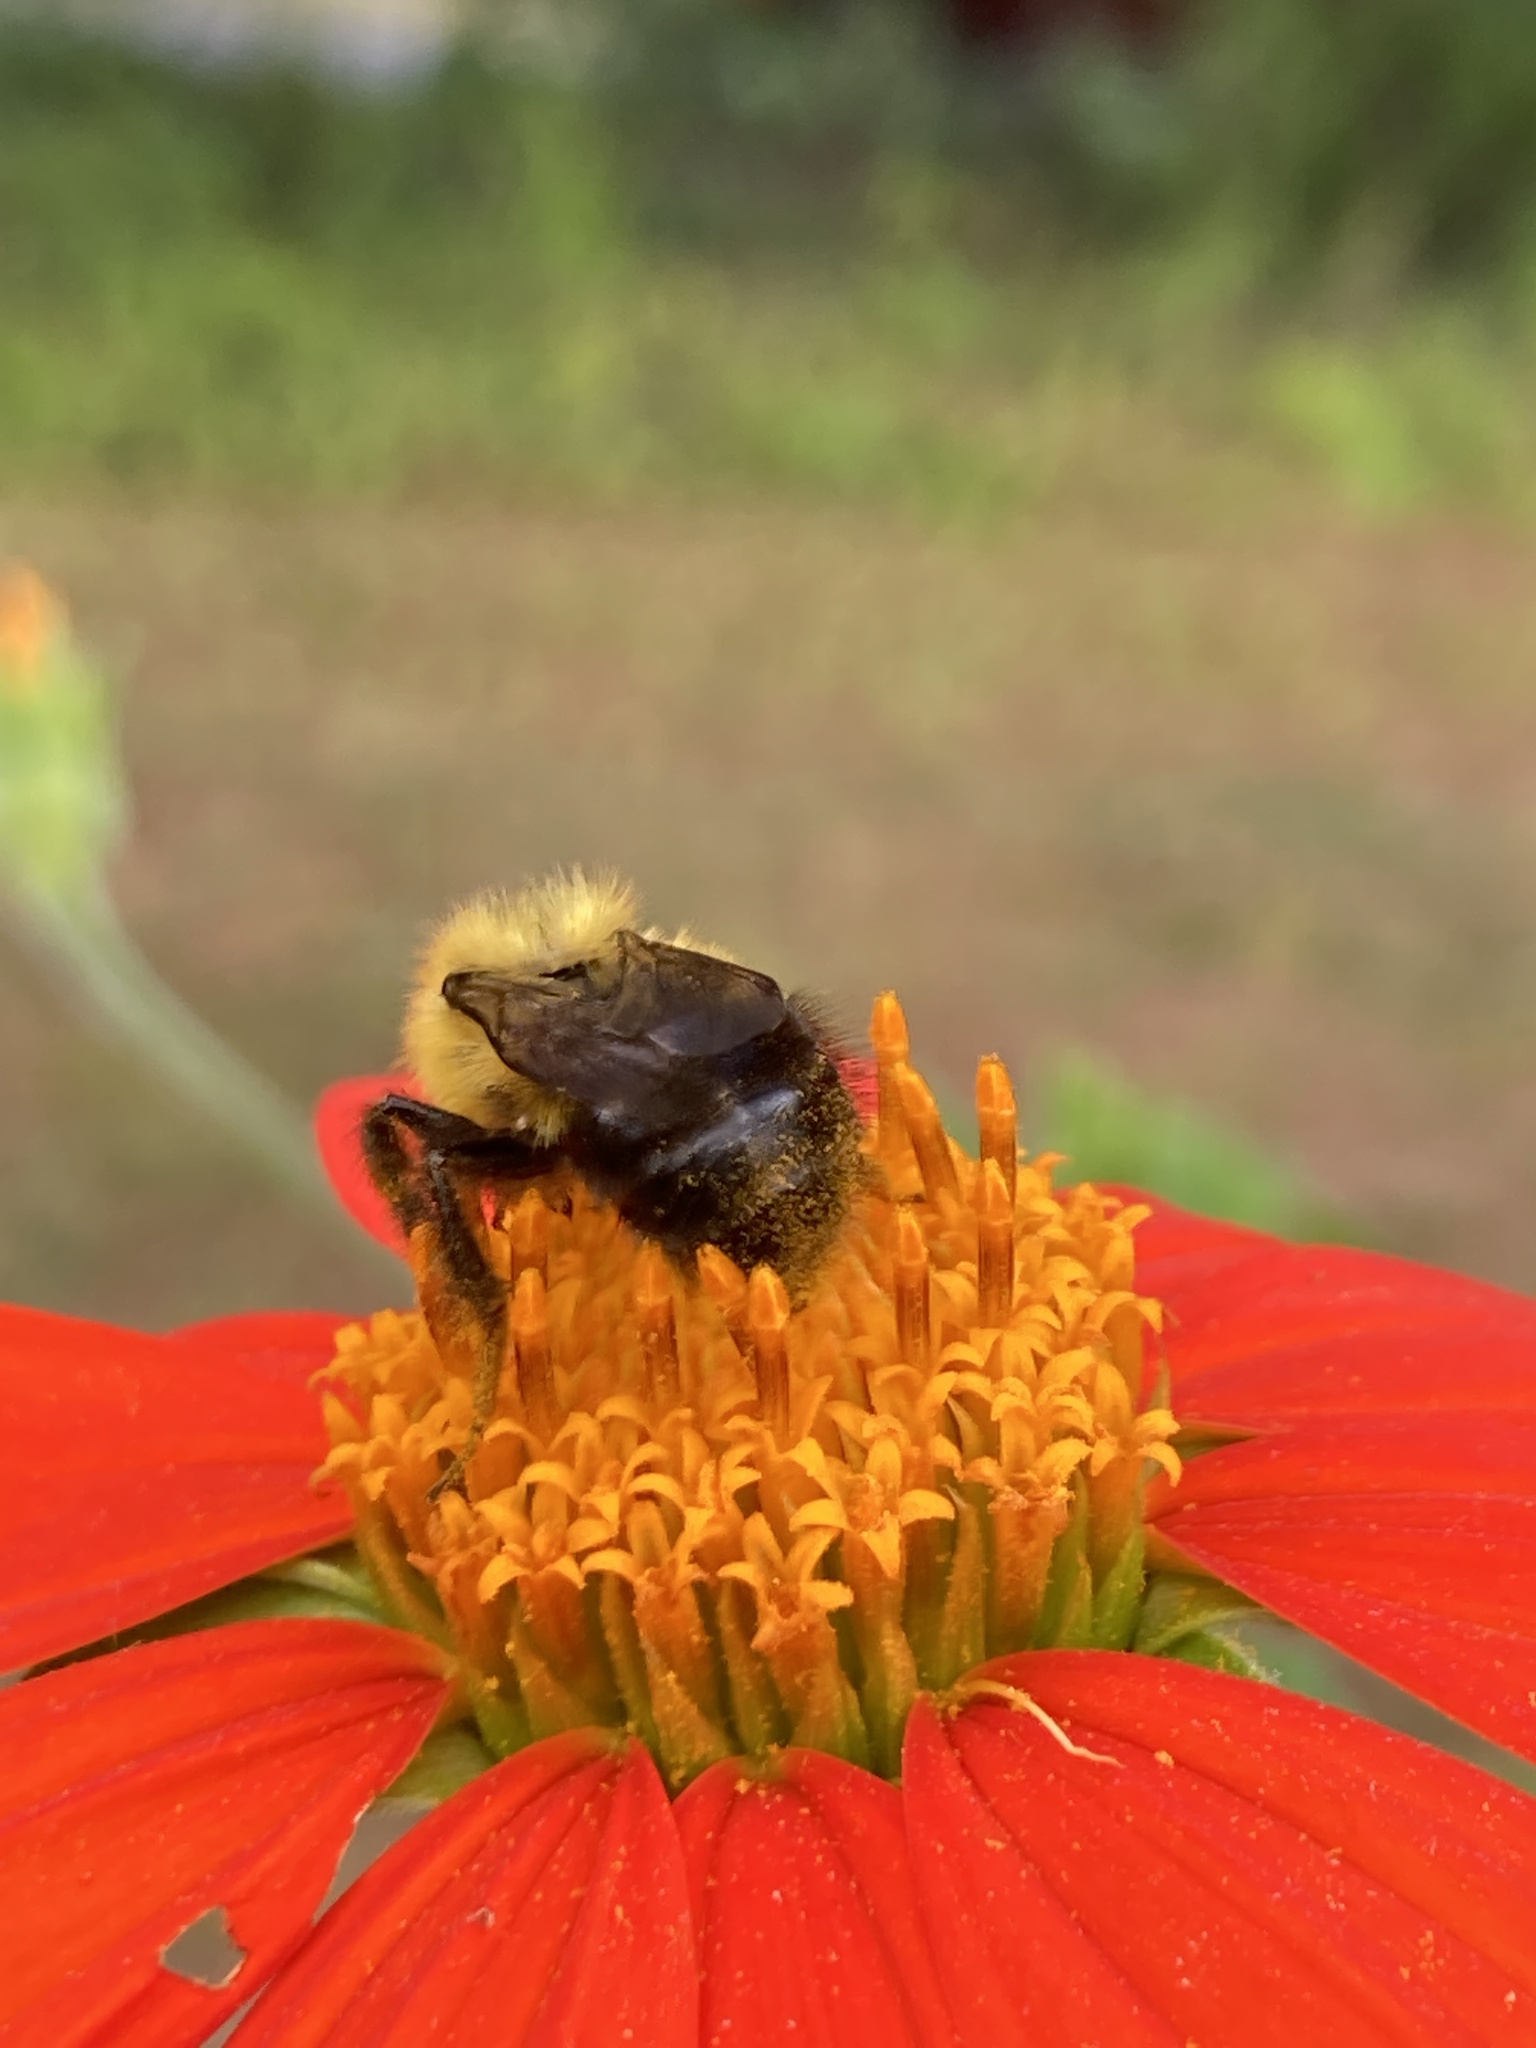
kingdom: Animalia
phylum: Arthropoda
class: Insecta
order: Hymenoptera
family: Apidae
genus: Pyrobombus
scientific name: Pyrobombus
